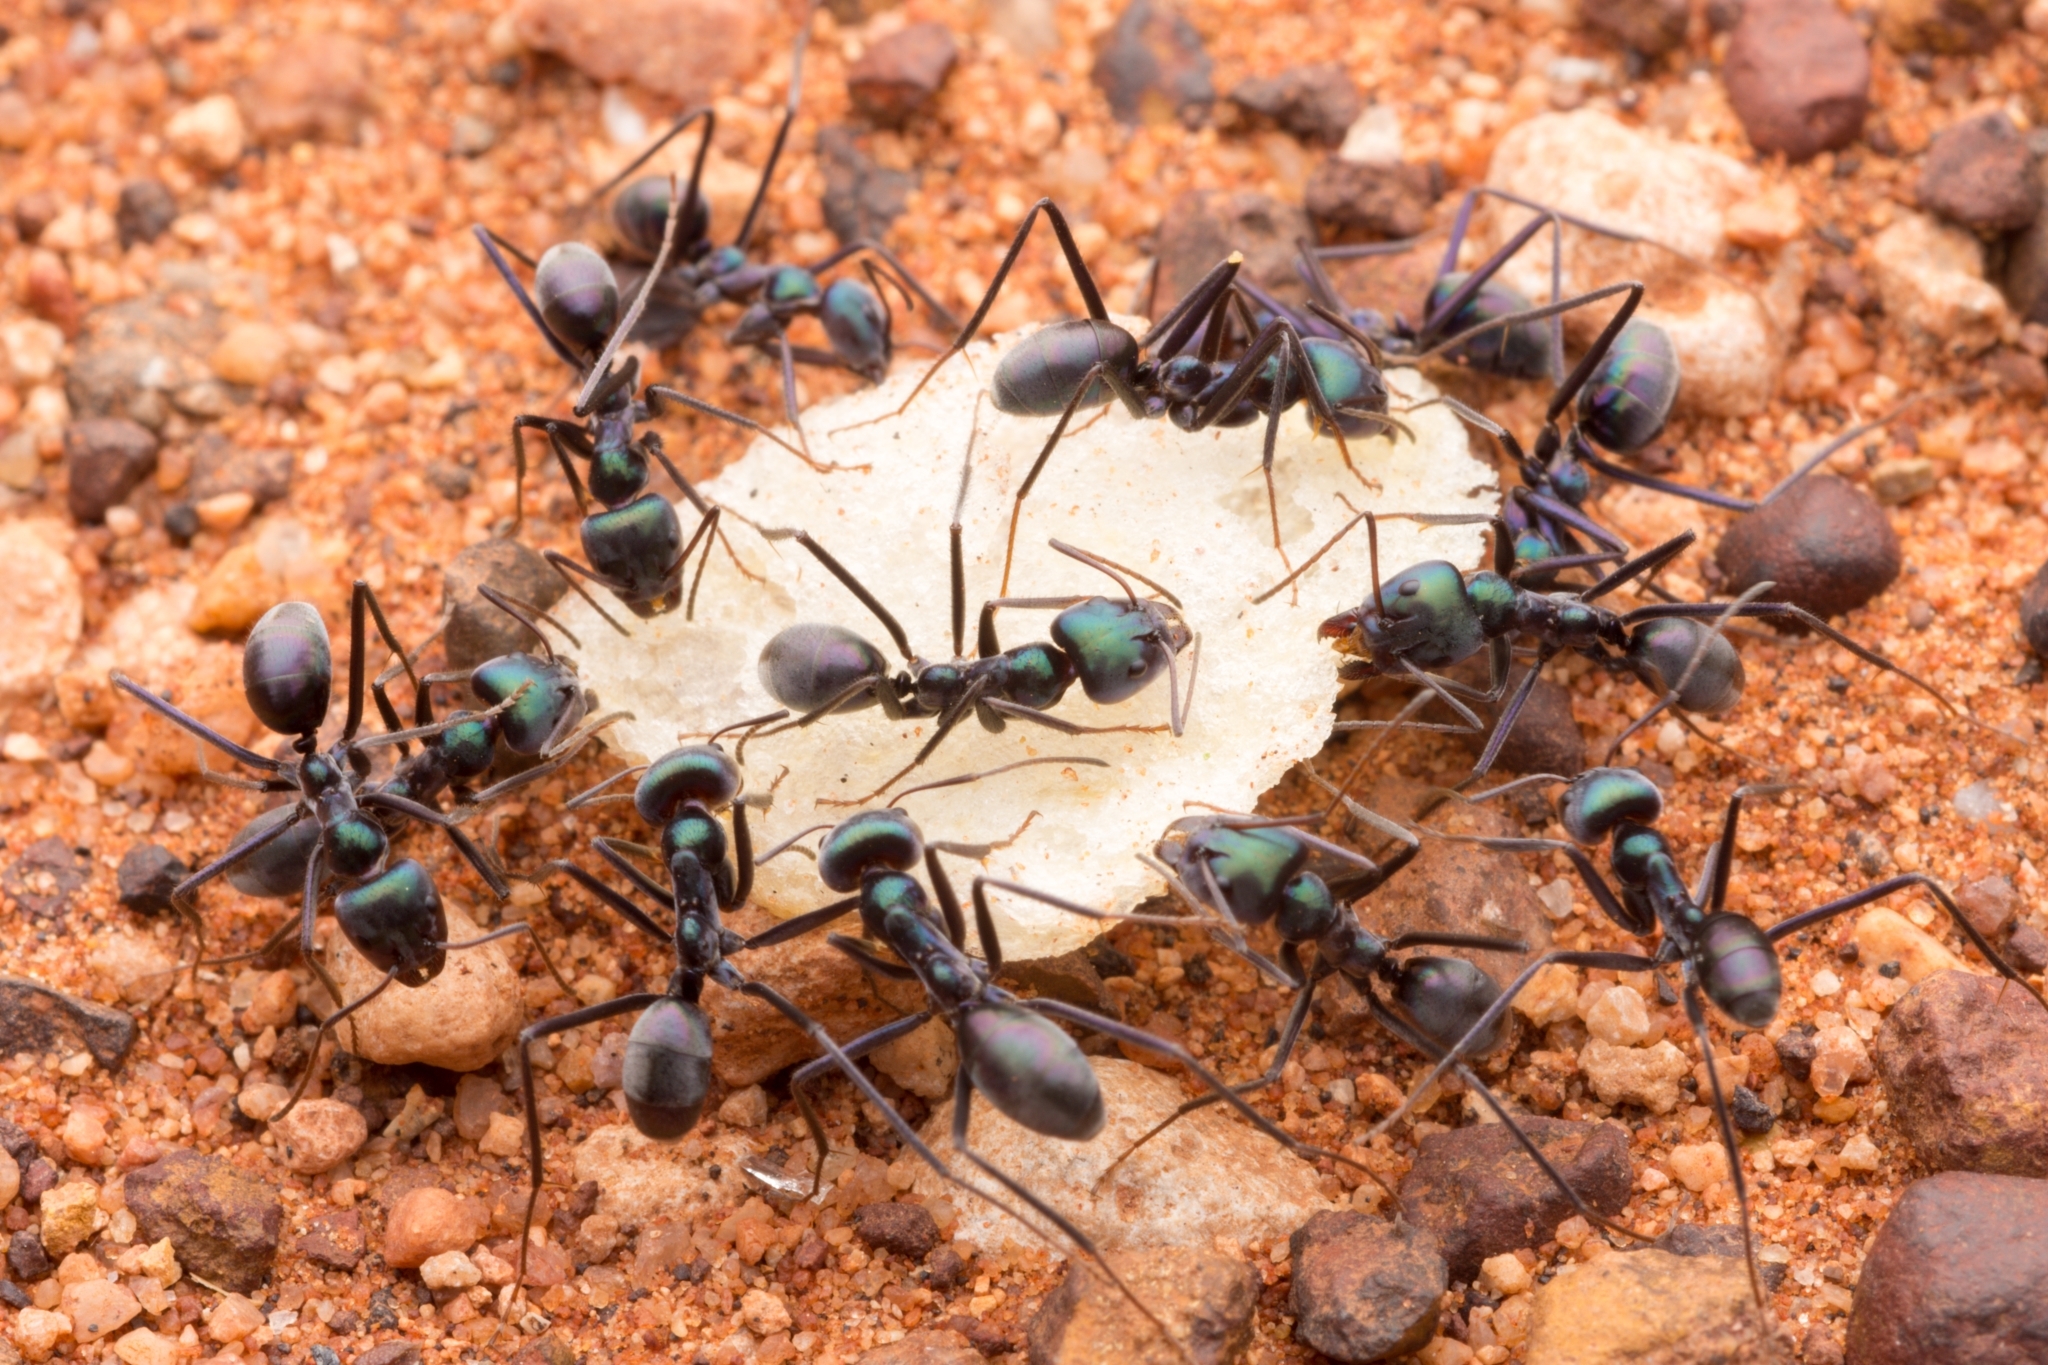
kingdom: Animalia
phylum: Arthropoda
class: Insecta
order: Hymenoptera
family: Formicidae
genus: Iridomyrmex
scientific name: Iridomyrmex viridiaeneus
